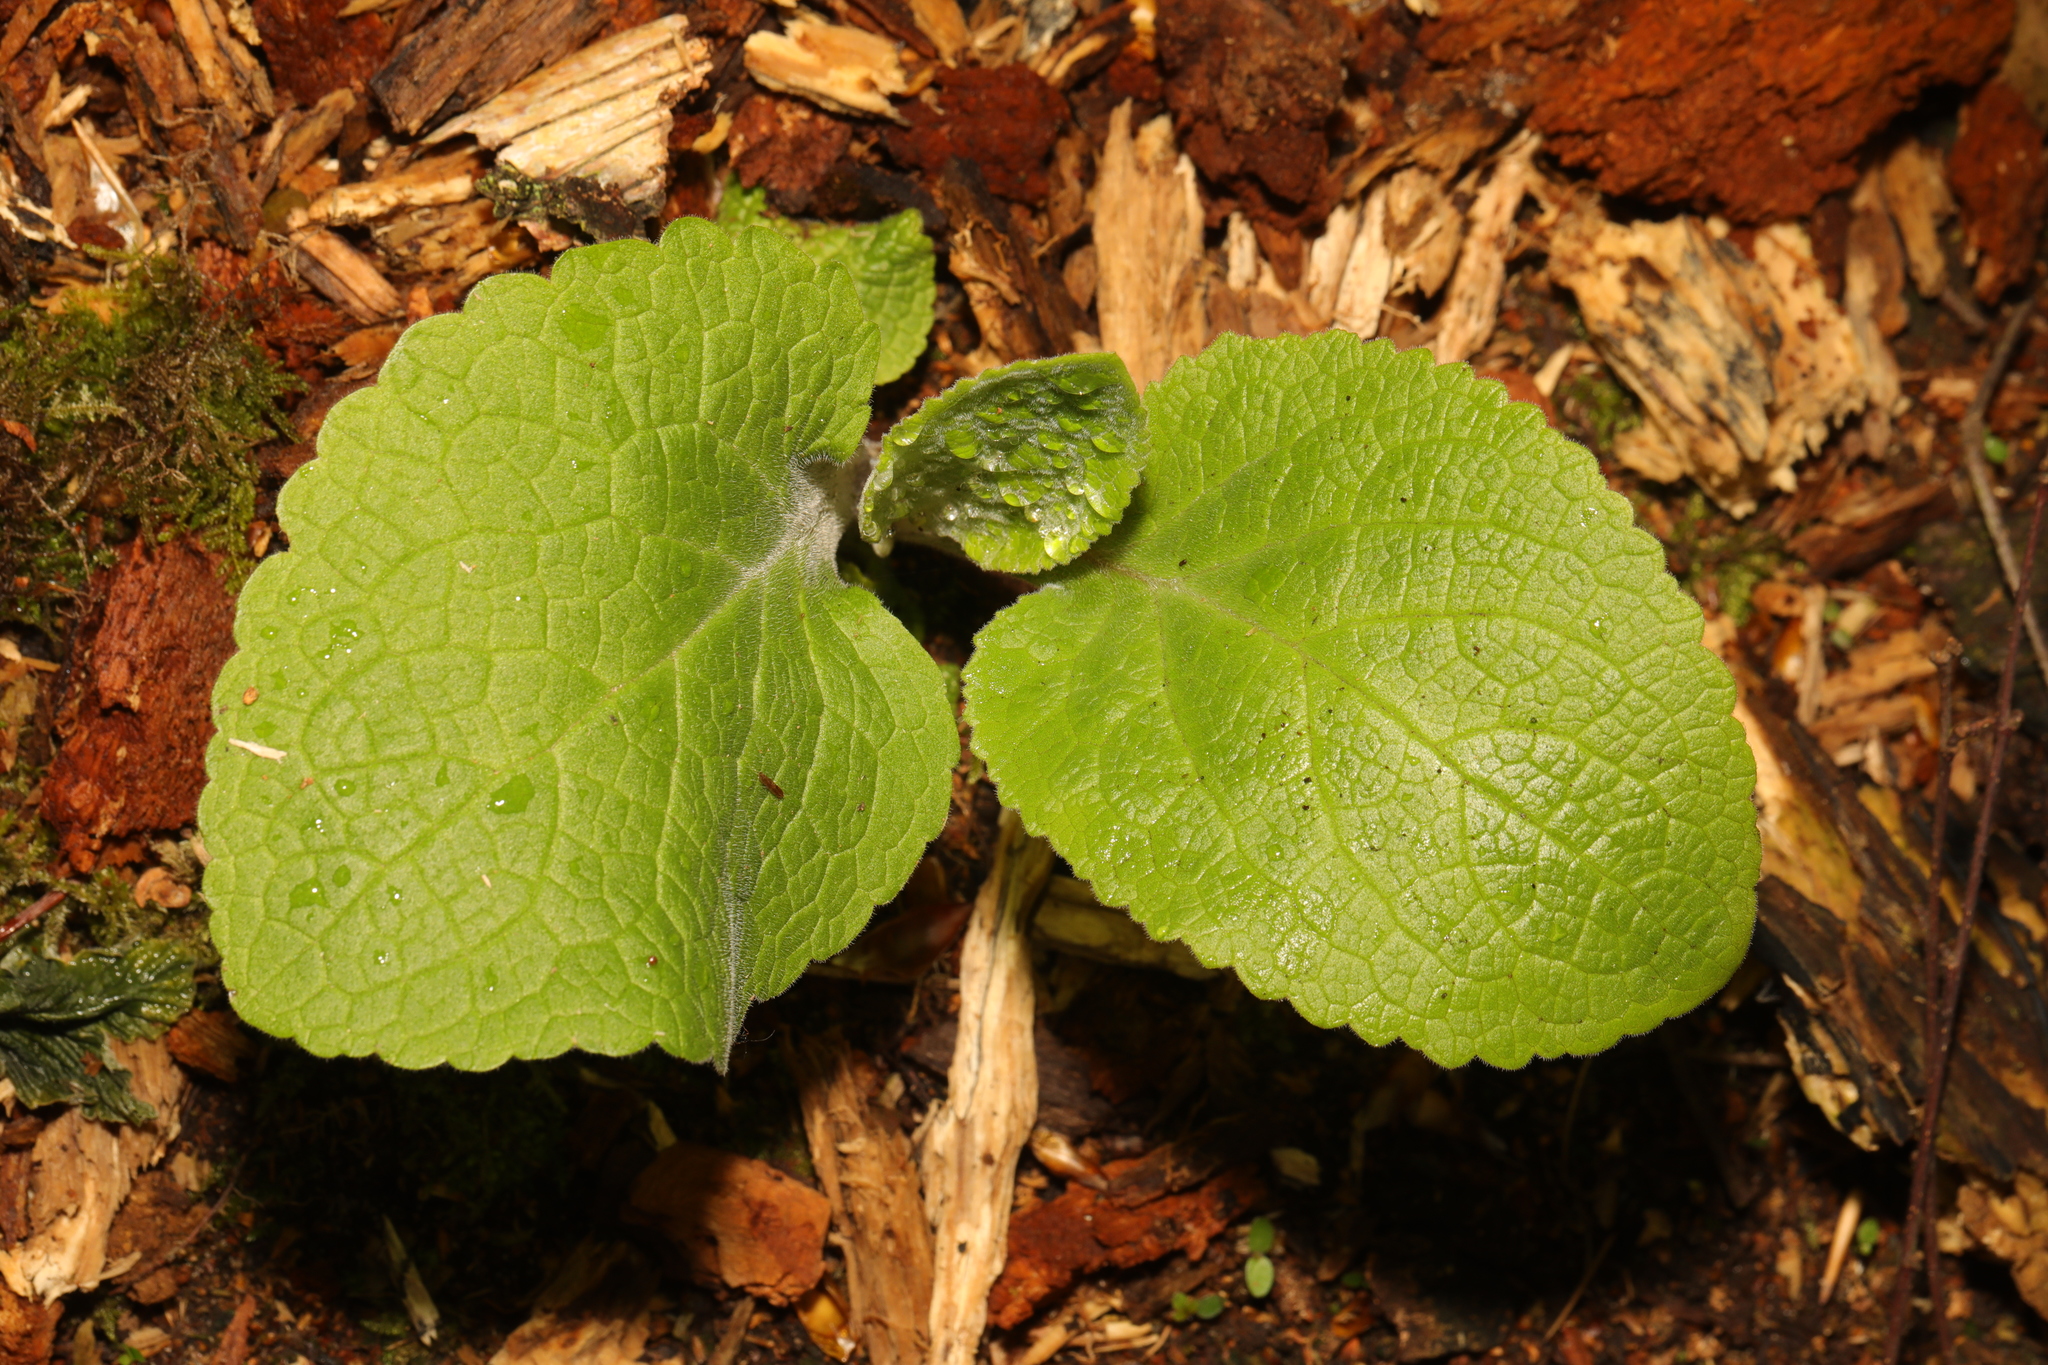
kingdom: Plantae
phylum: Tracheophyta
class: Magnoliopsida
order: Lamiales
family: Plantaginaceae
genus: Digitalis
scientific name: Digitalis purpurea
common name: Foxglove
